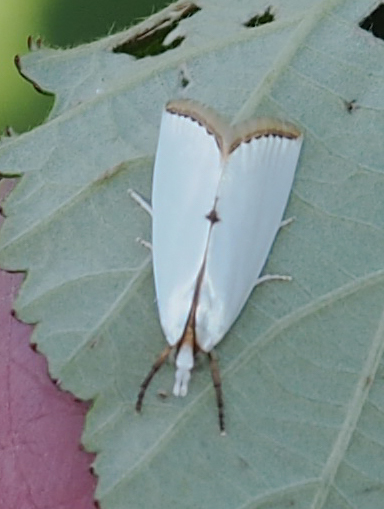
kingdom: Animalia
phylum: Arthropoda
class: Insecta
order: Lepidoptera
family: Crambidae
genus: Argyria
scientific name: Argyria nivalis
